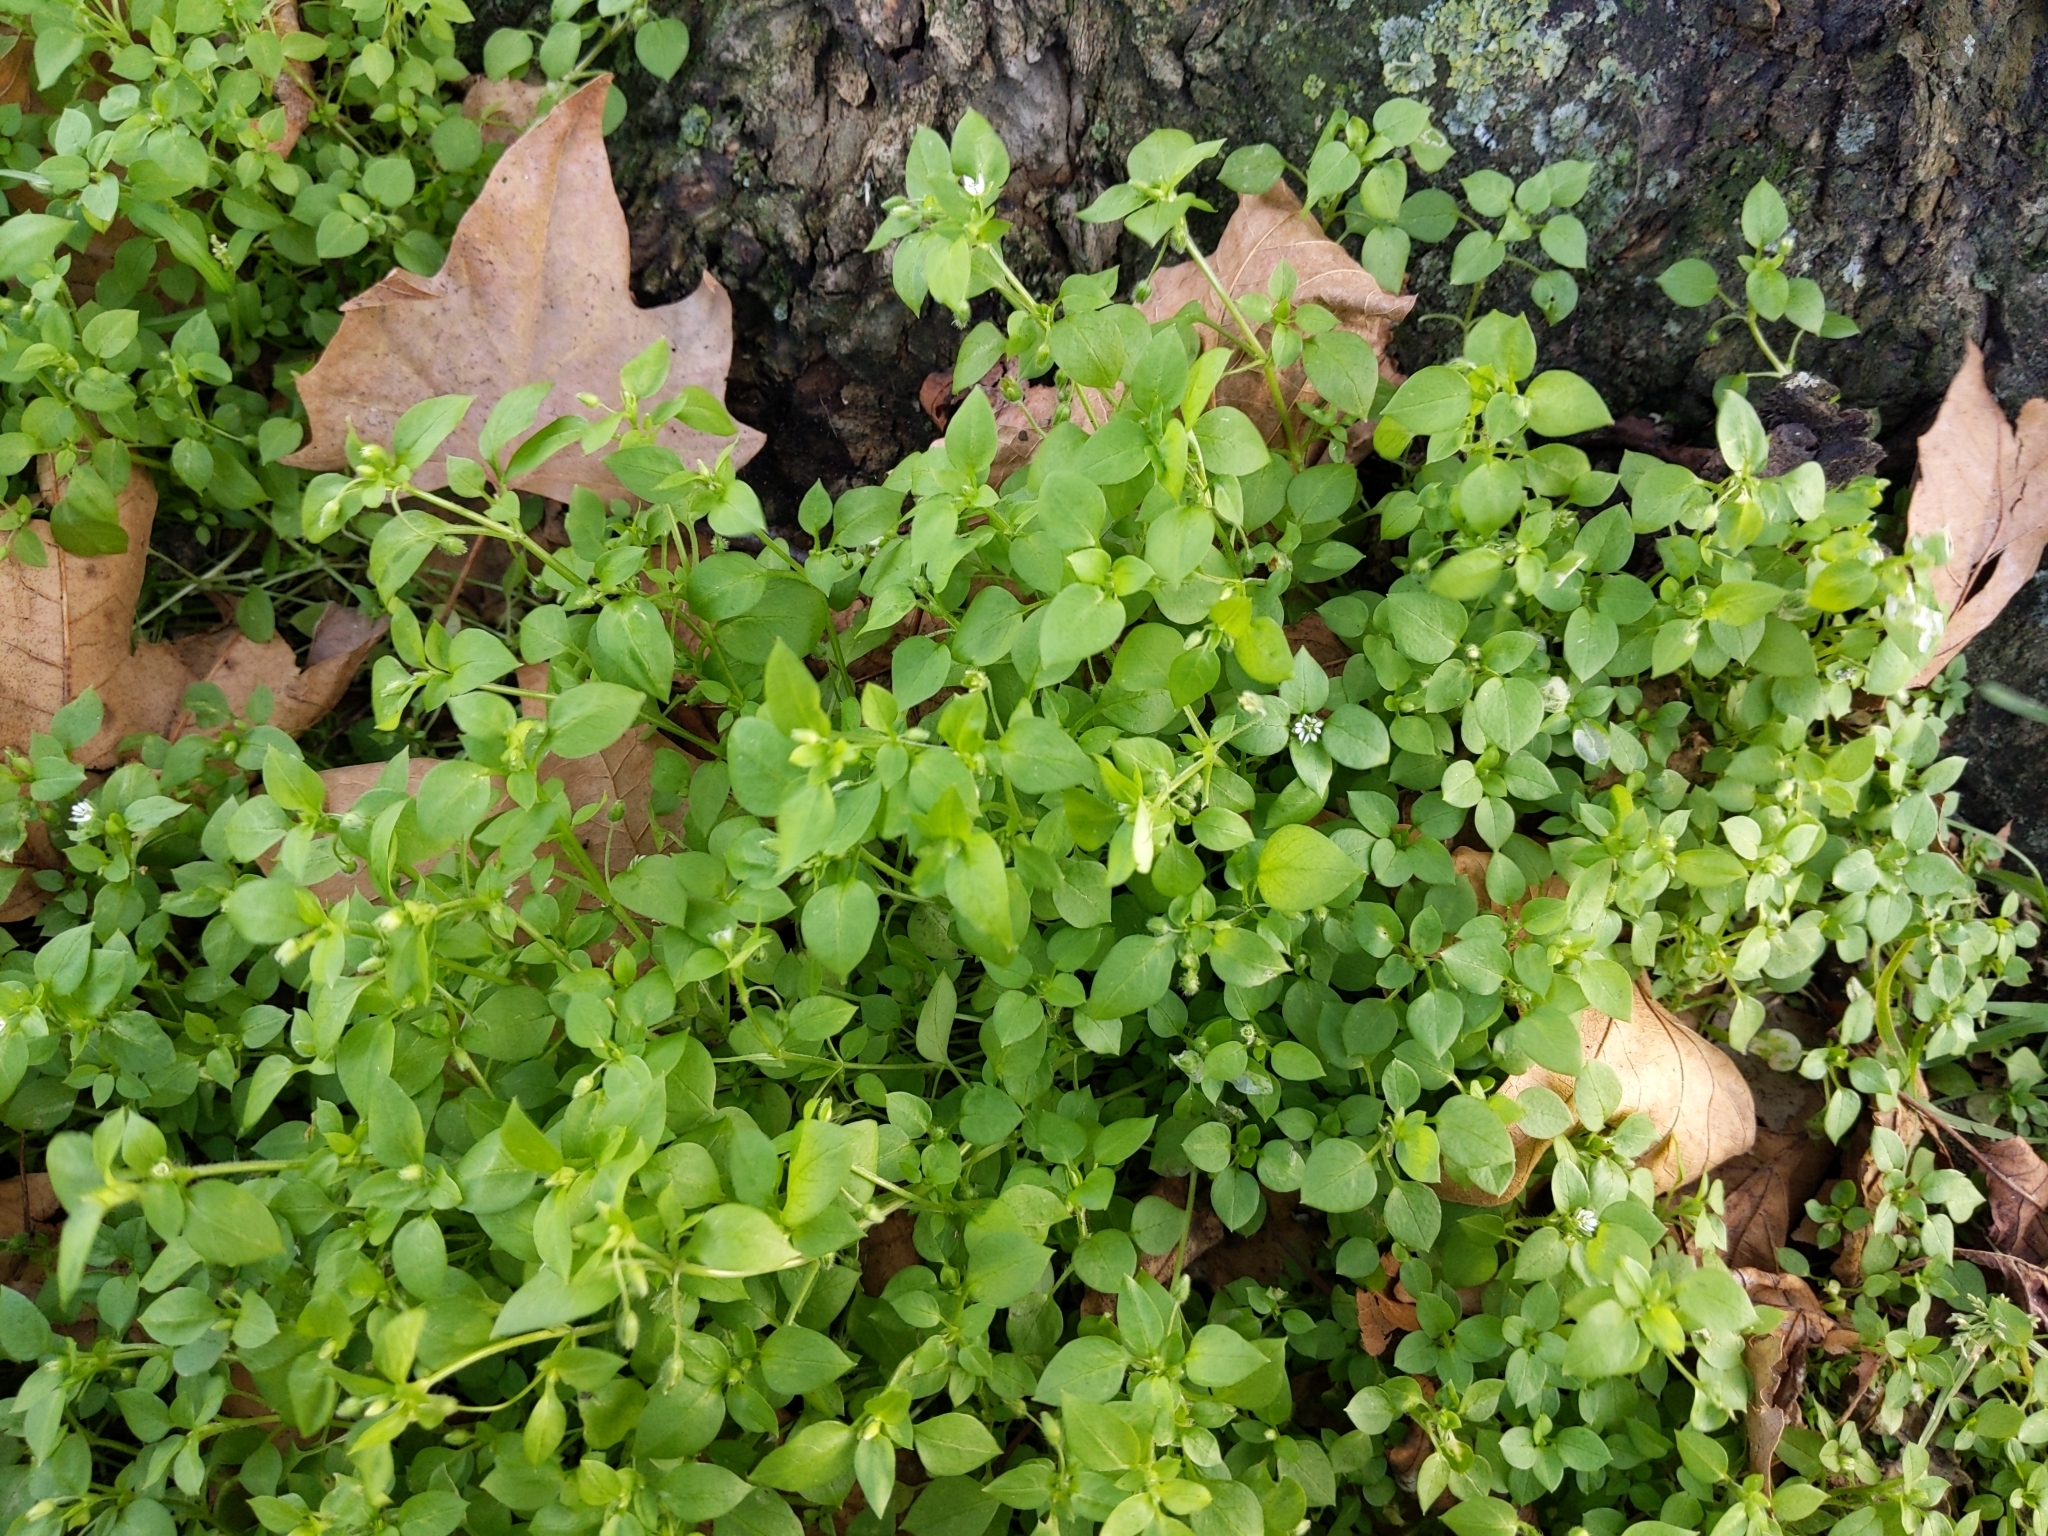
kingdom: Plantae
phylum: Tracheophyta
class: Magnoliopsida
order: Caryophyllales
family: Caryophyllaceae
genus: Stellaria
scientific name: Stellaria media
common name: Common chickweed
